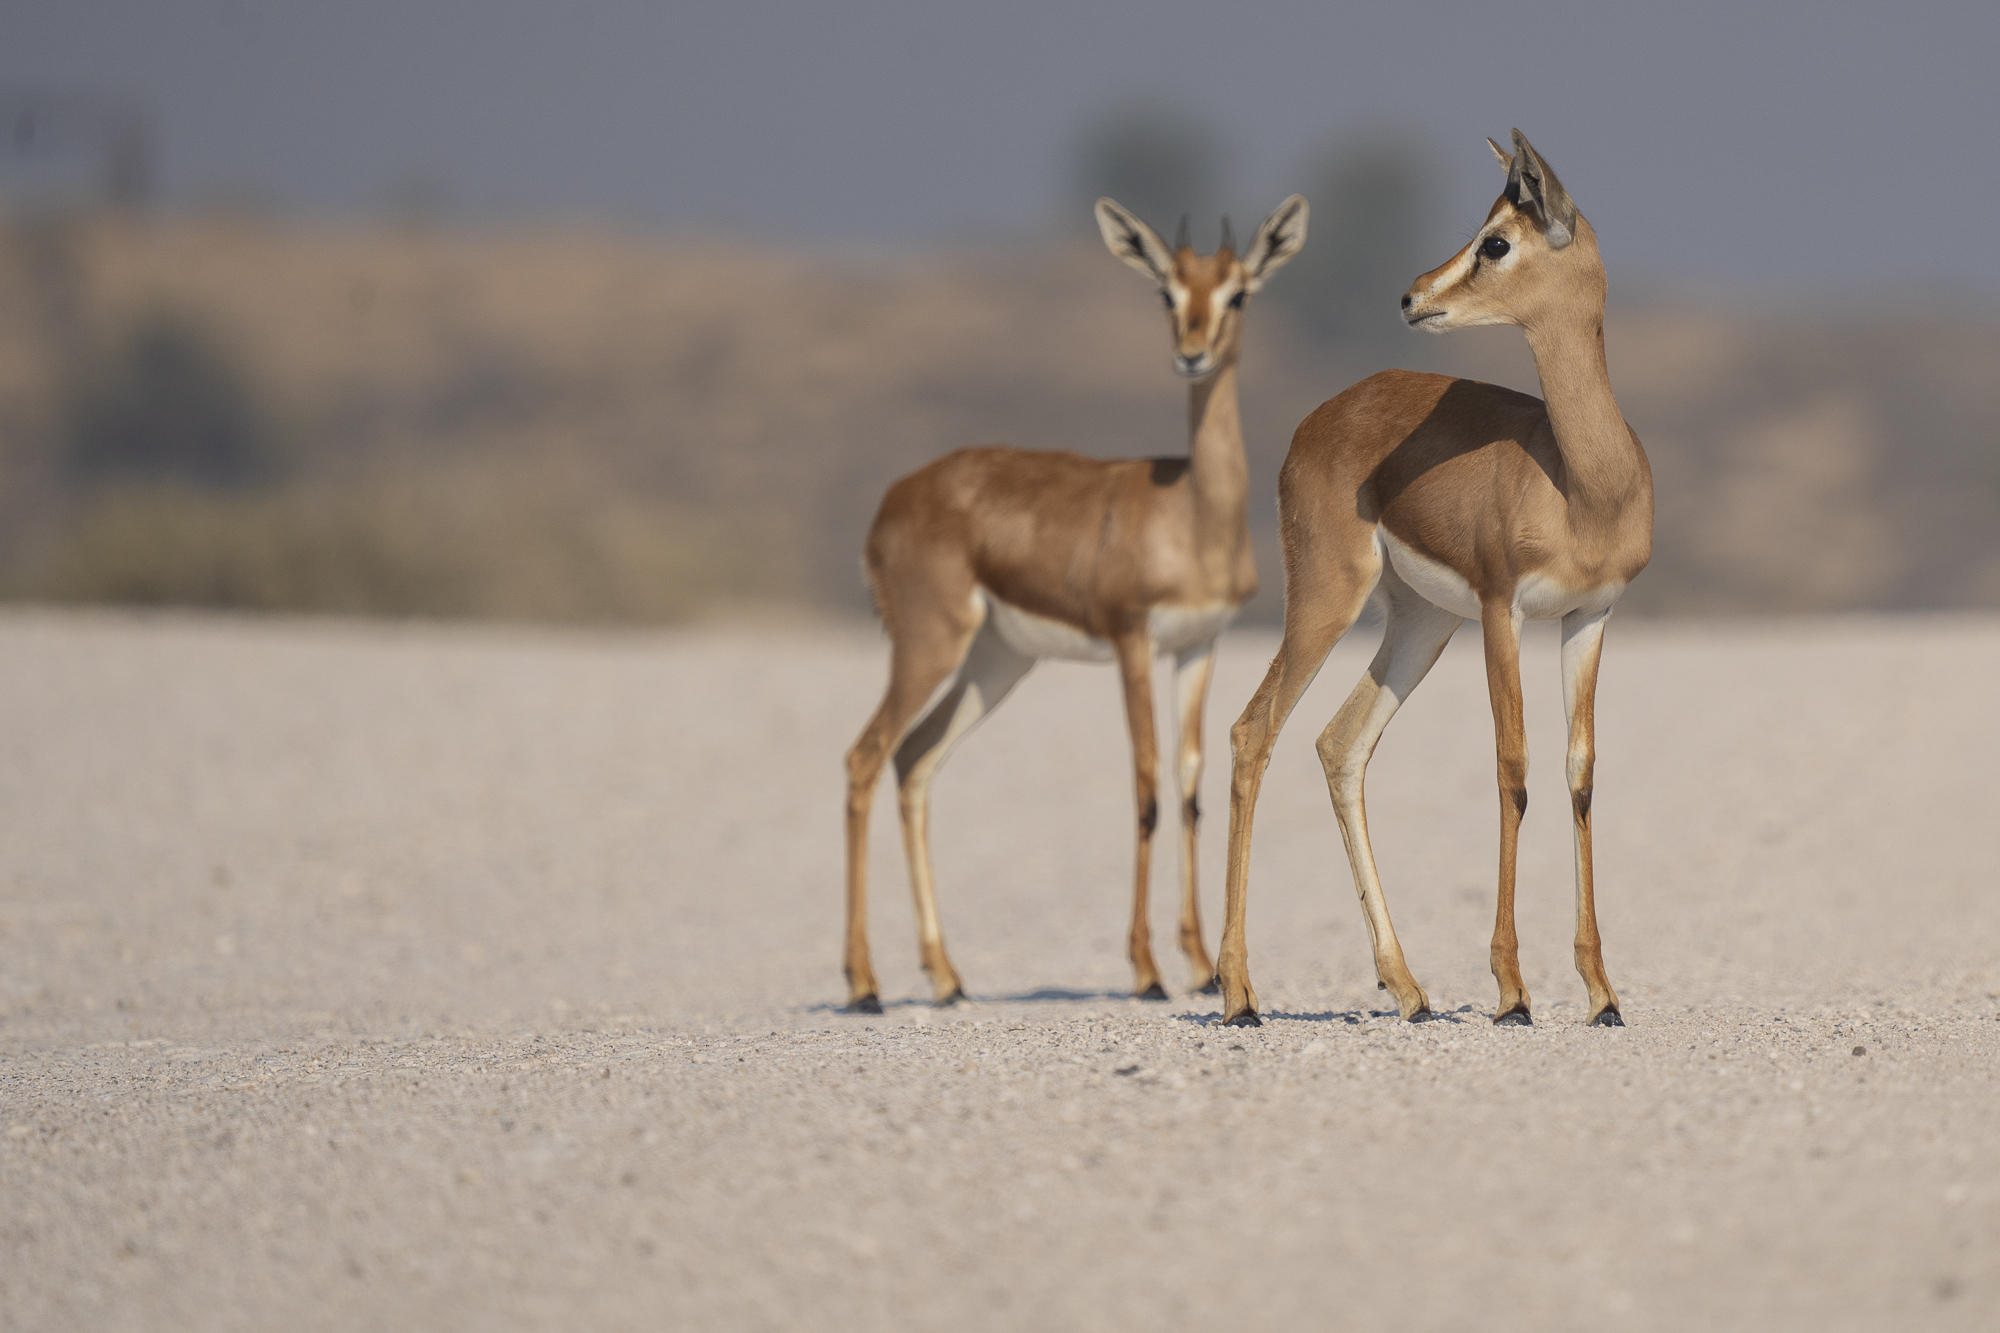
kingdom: Animalia
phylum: Chordata
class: Mammalia
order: Artiodactyla
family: Bovidae
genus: Gazella
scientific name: Gazella arabica
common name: Arabian gazelle
